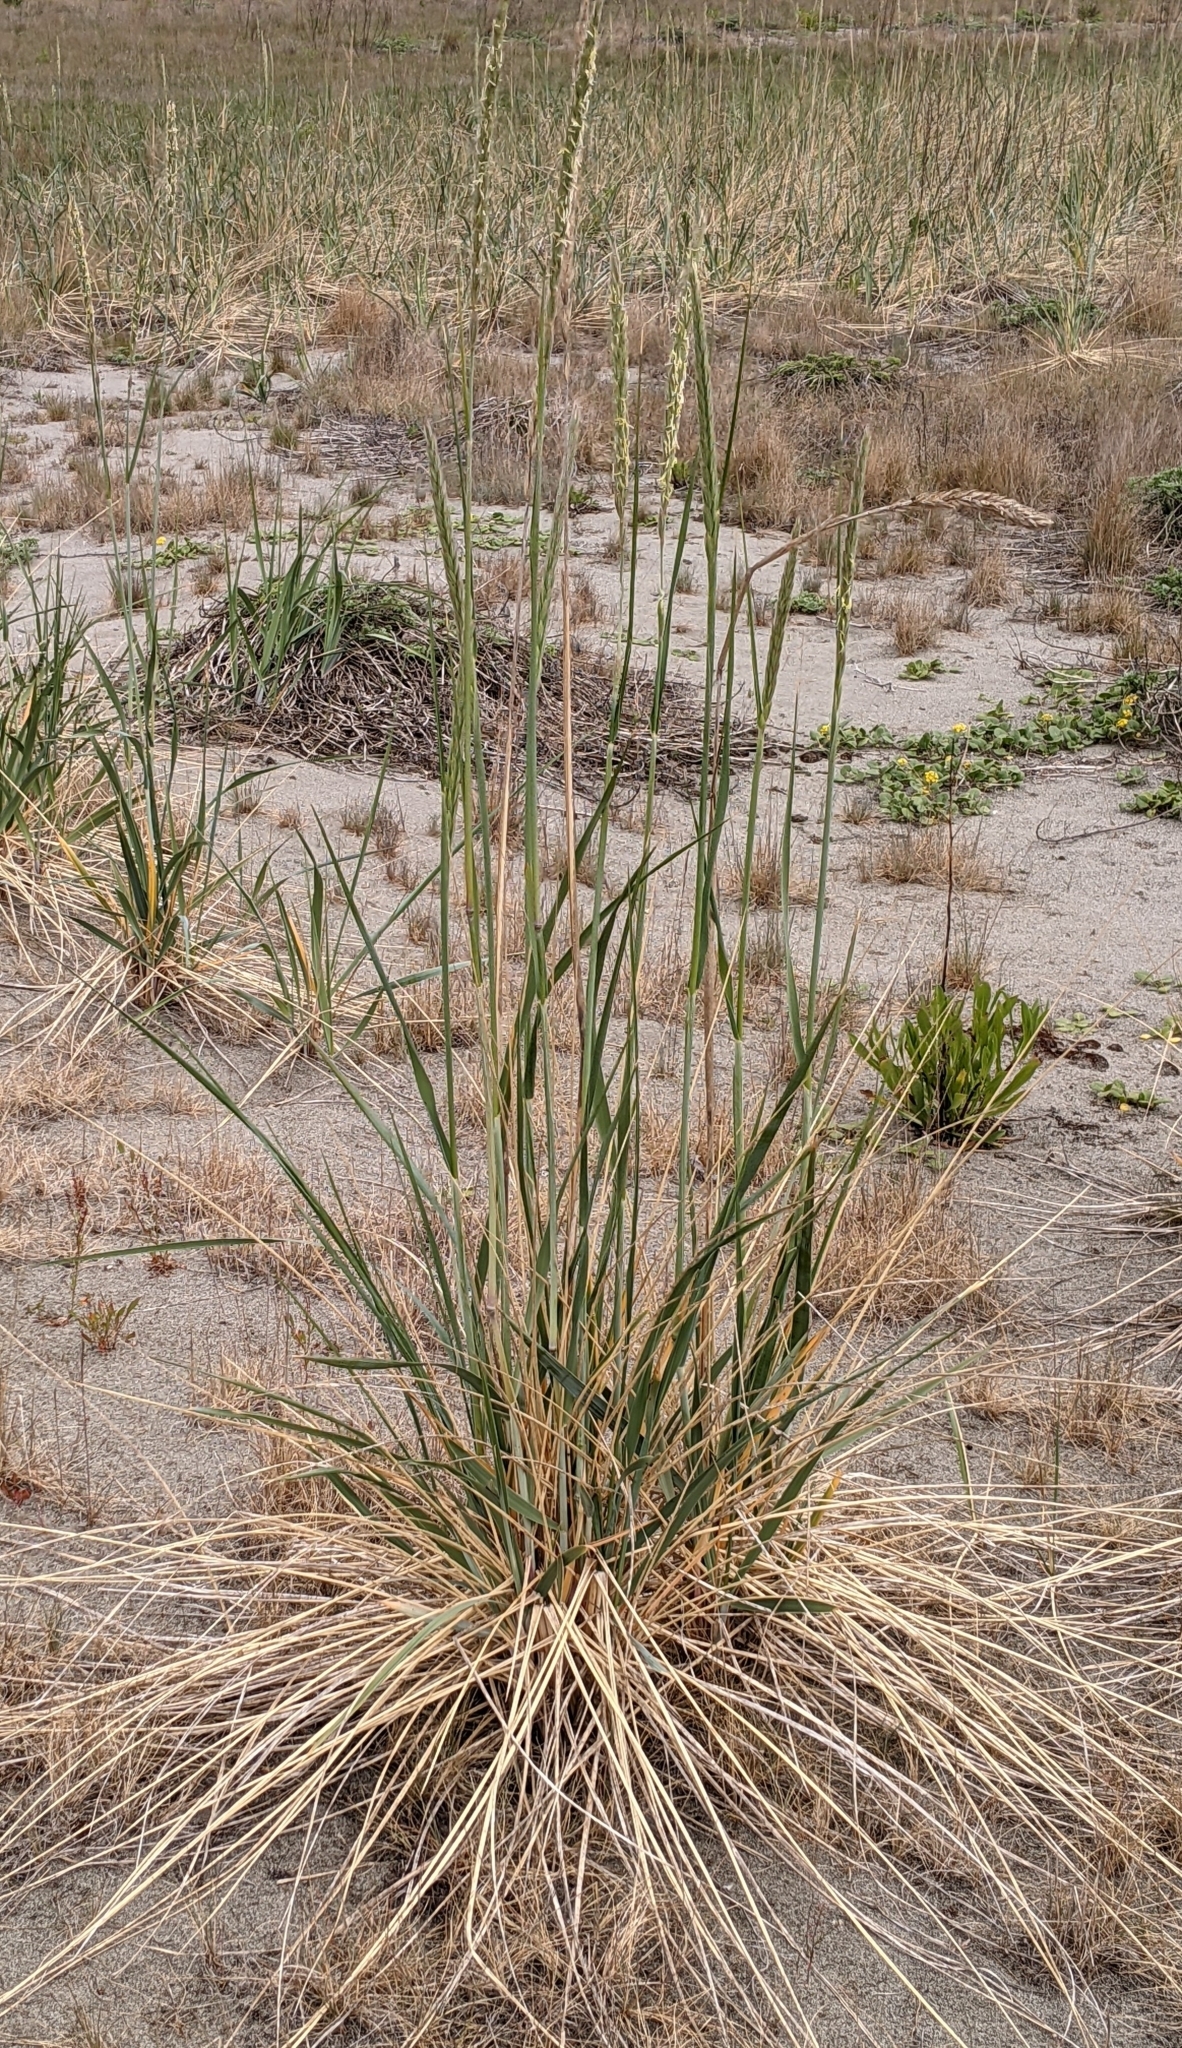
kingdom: Plantae
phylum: Tracheophyta
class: Liliopsida
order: Poales
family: Poaceae
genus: Leymus
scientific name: Leymus mollis
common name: American dune grass
